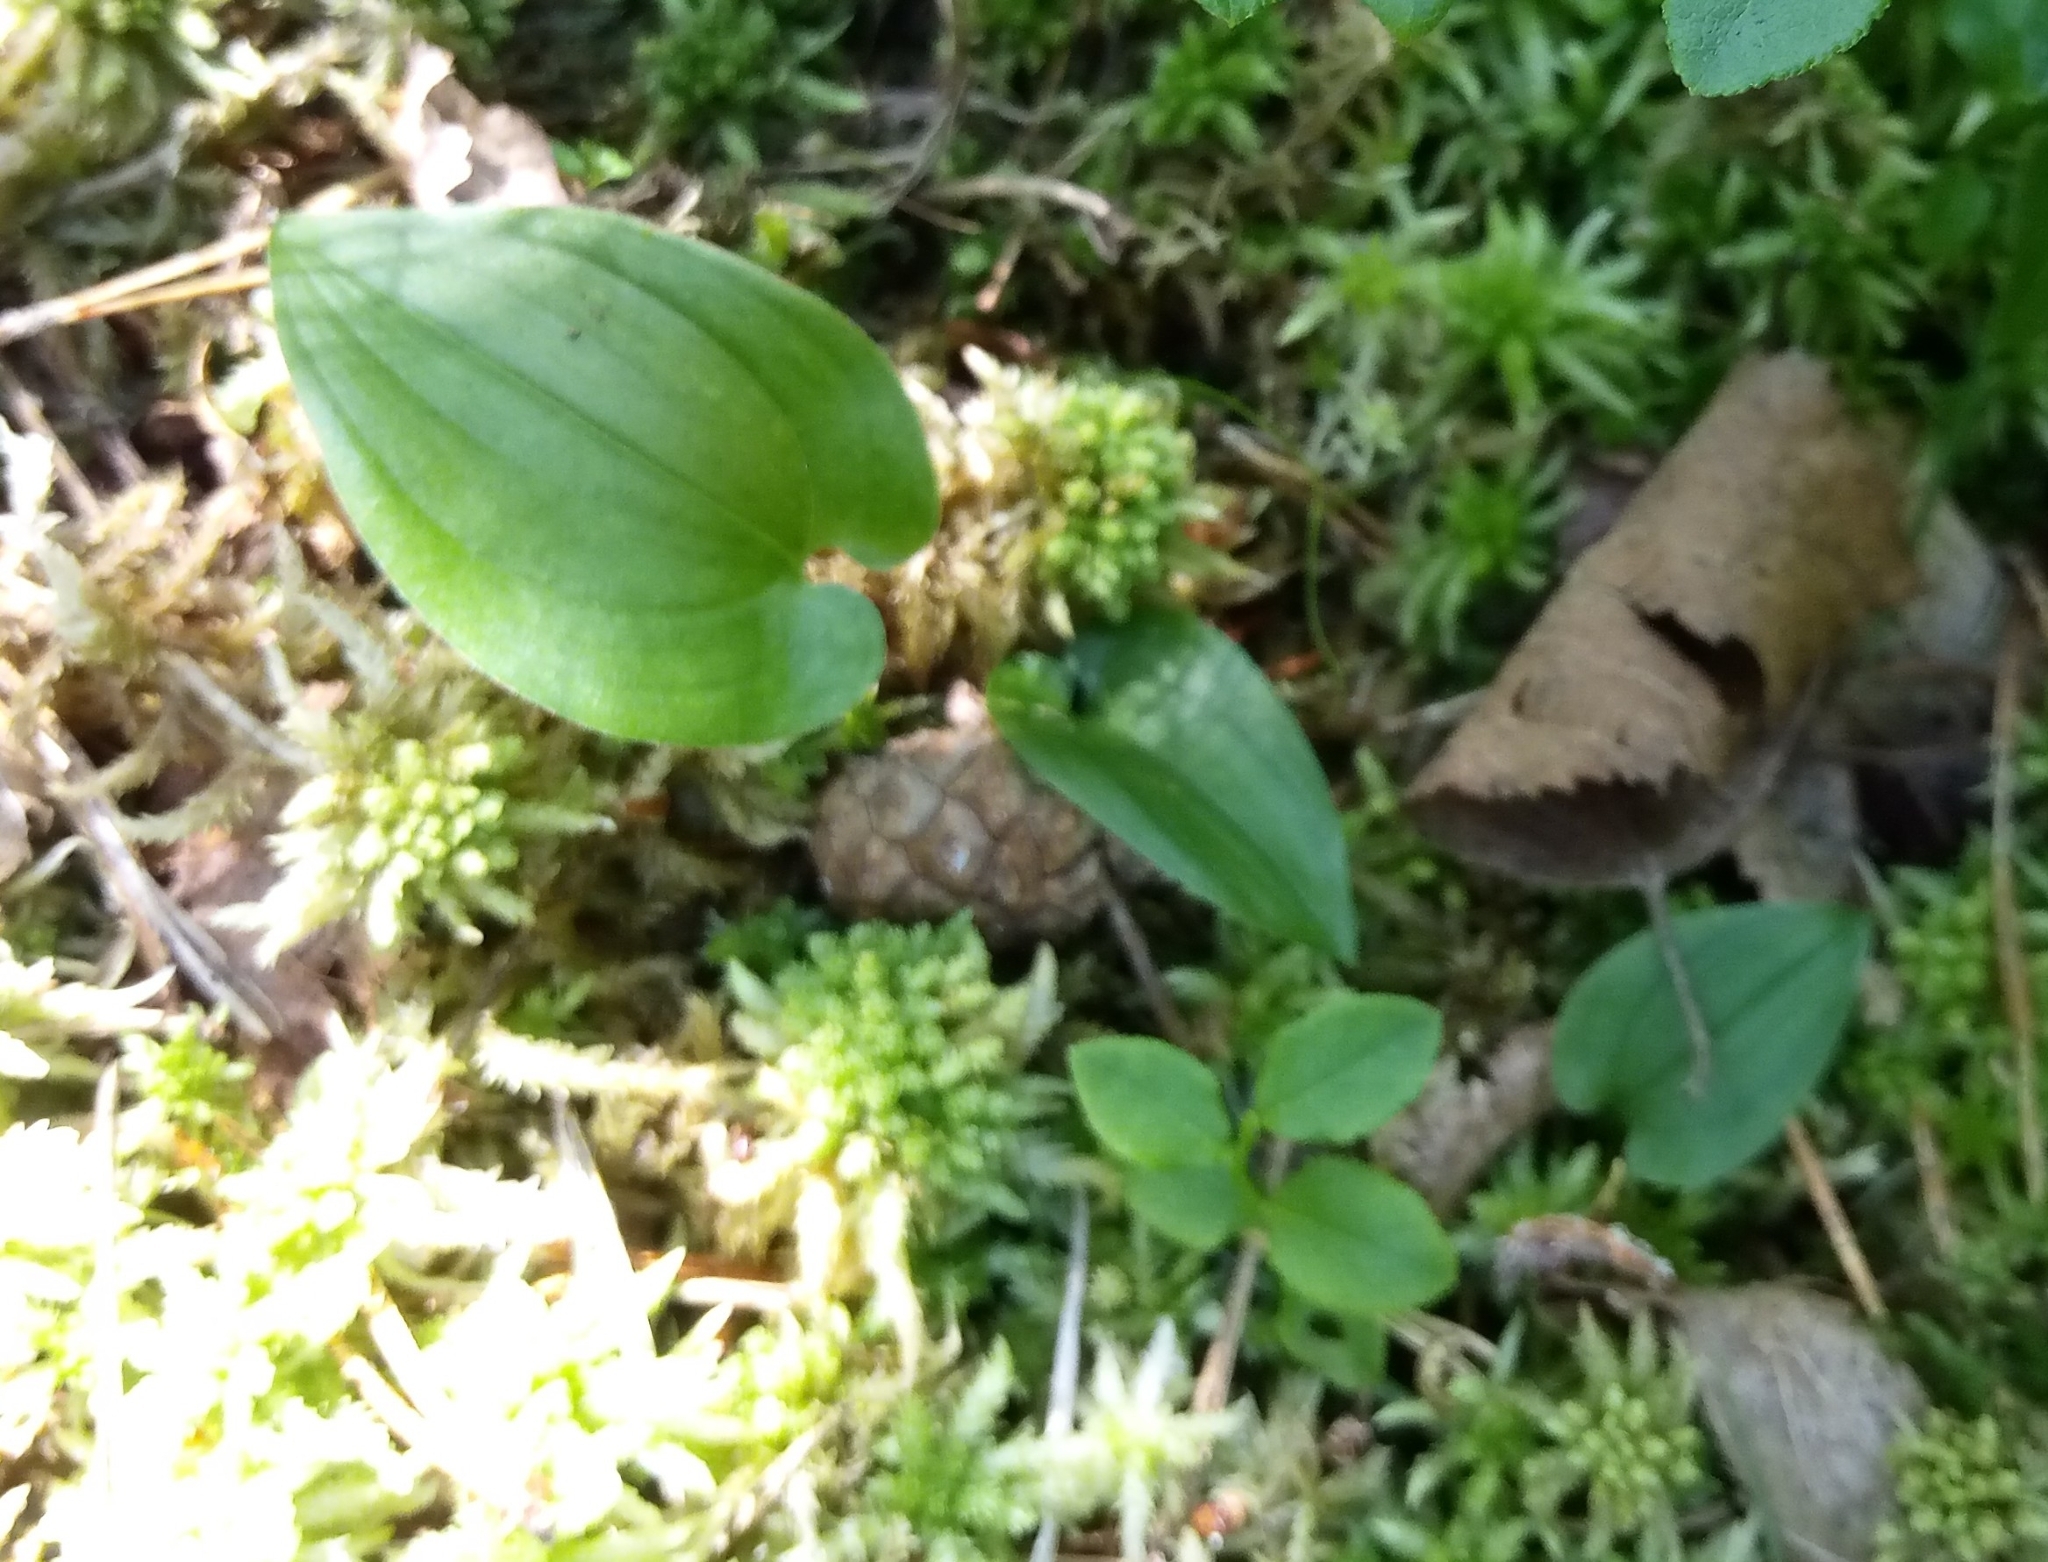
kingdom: Plantae
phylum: Tracheophyta
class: Liliopsida
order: Asparagales
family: Asparagaceae
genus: Maianthemum
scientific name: Maianthemum bifolium
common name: May lily
